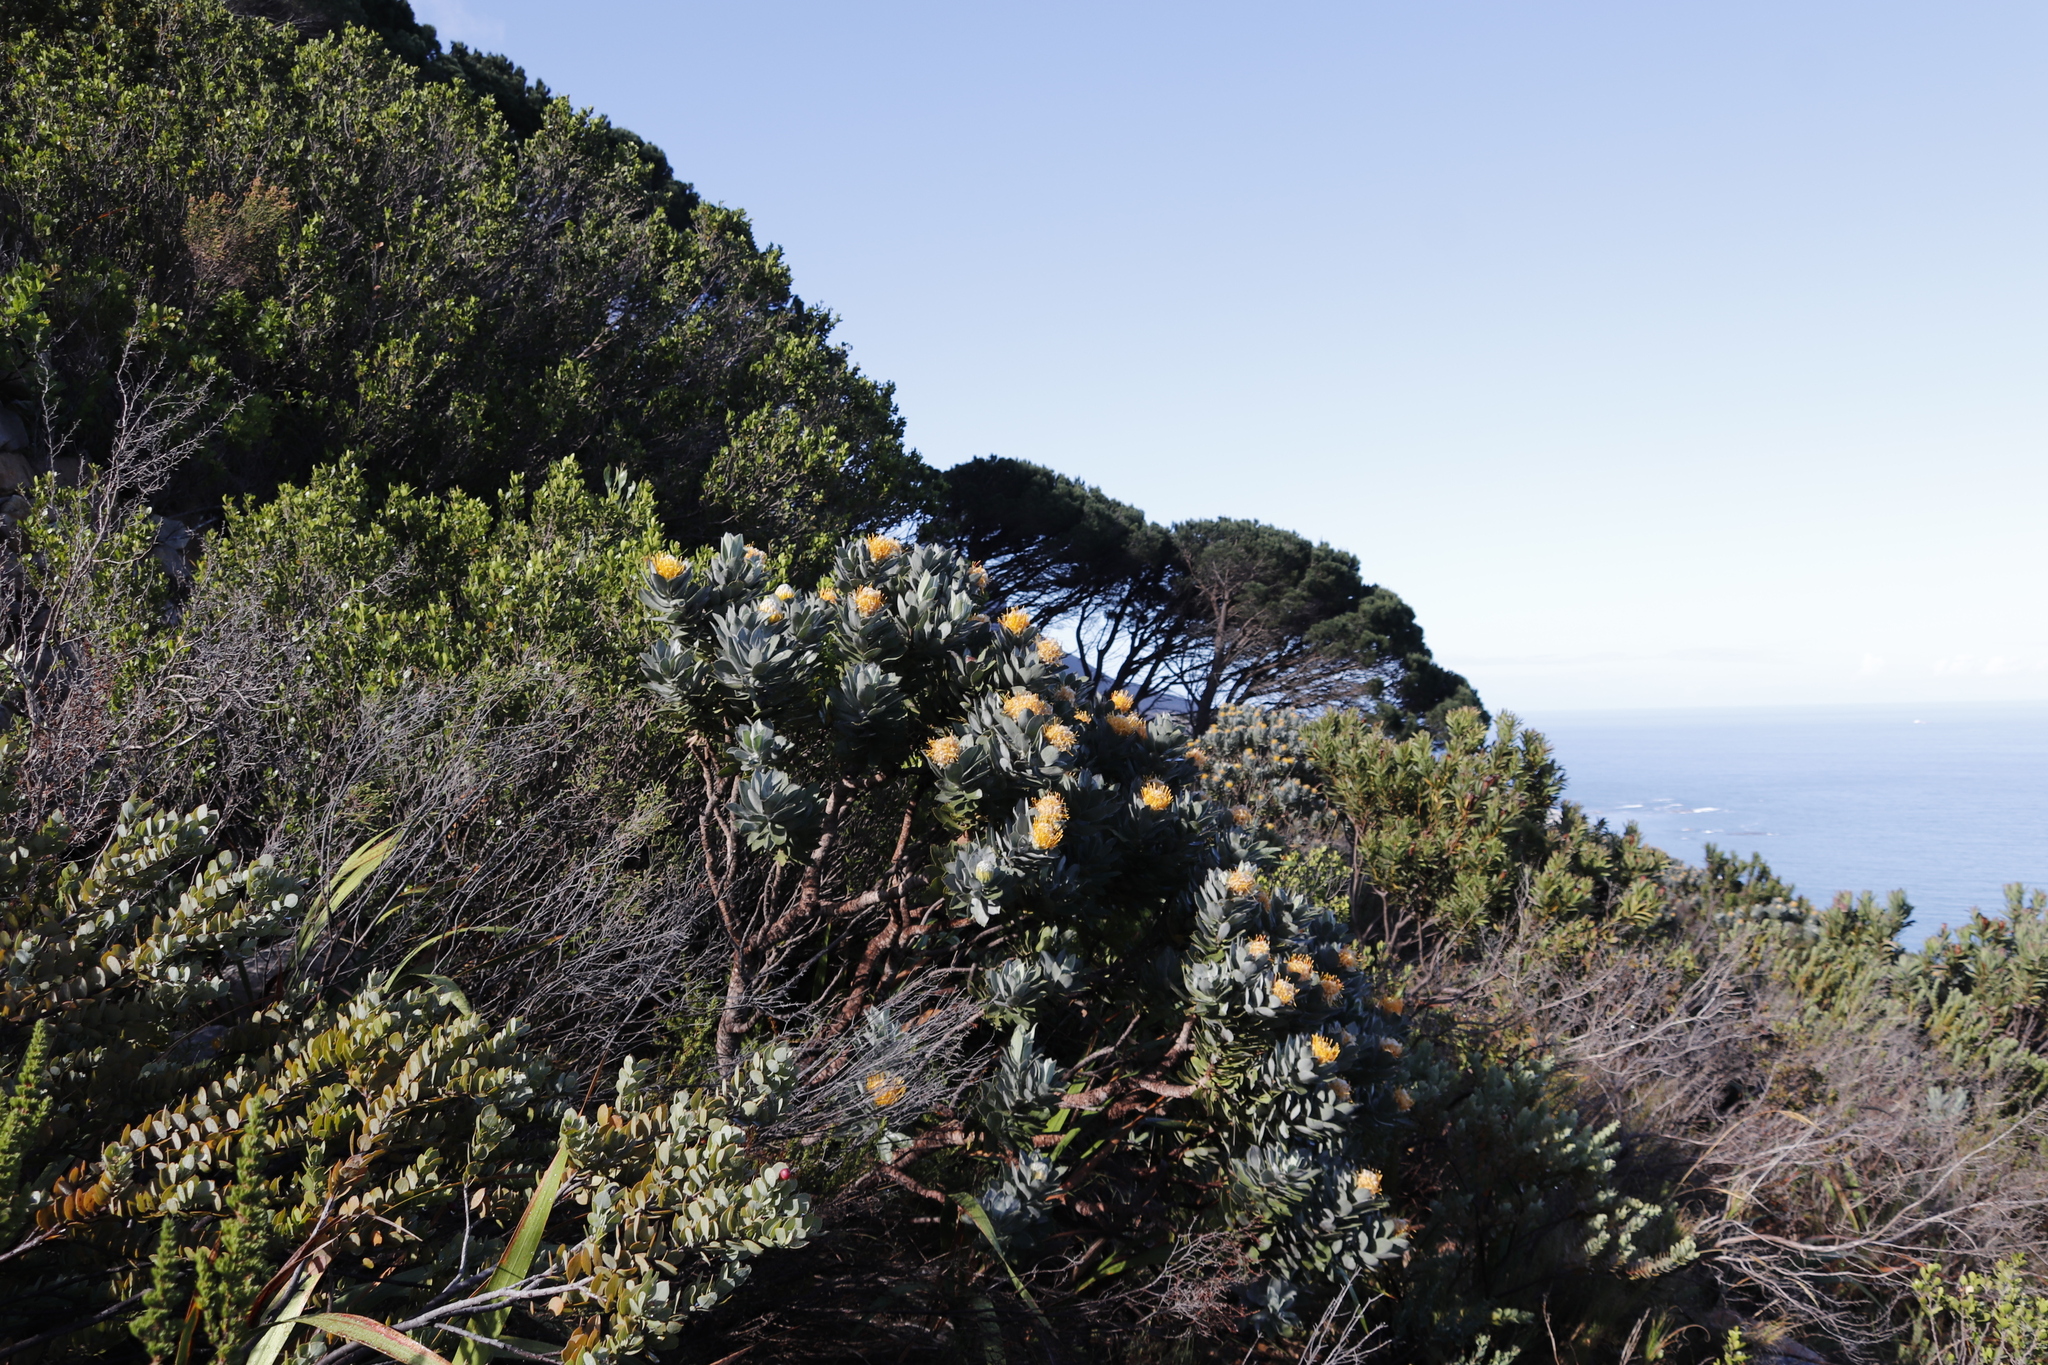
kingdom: Plantae
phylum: Tracheophyta
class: Magnoliopsida
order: Proteales
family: Proteaceae
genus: Leucospermum
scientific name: Leucospermum conocarpodendron
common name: Tree pincushion
